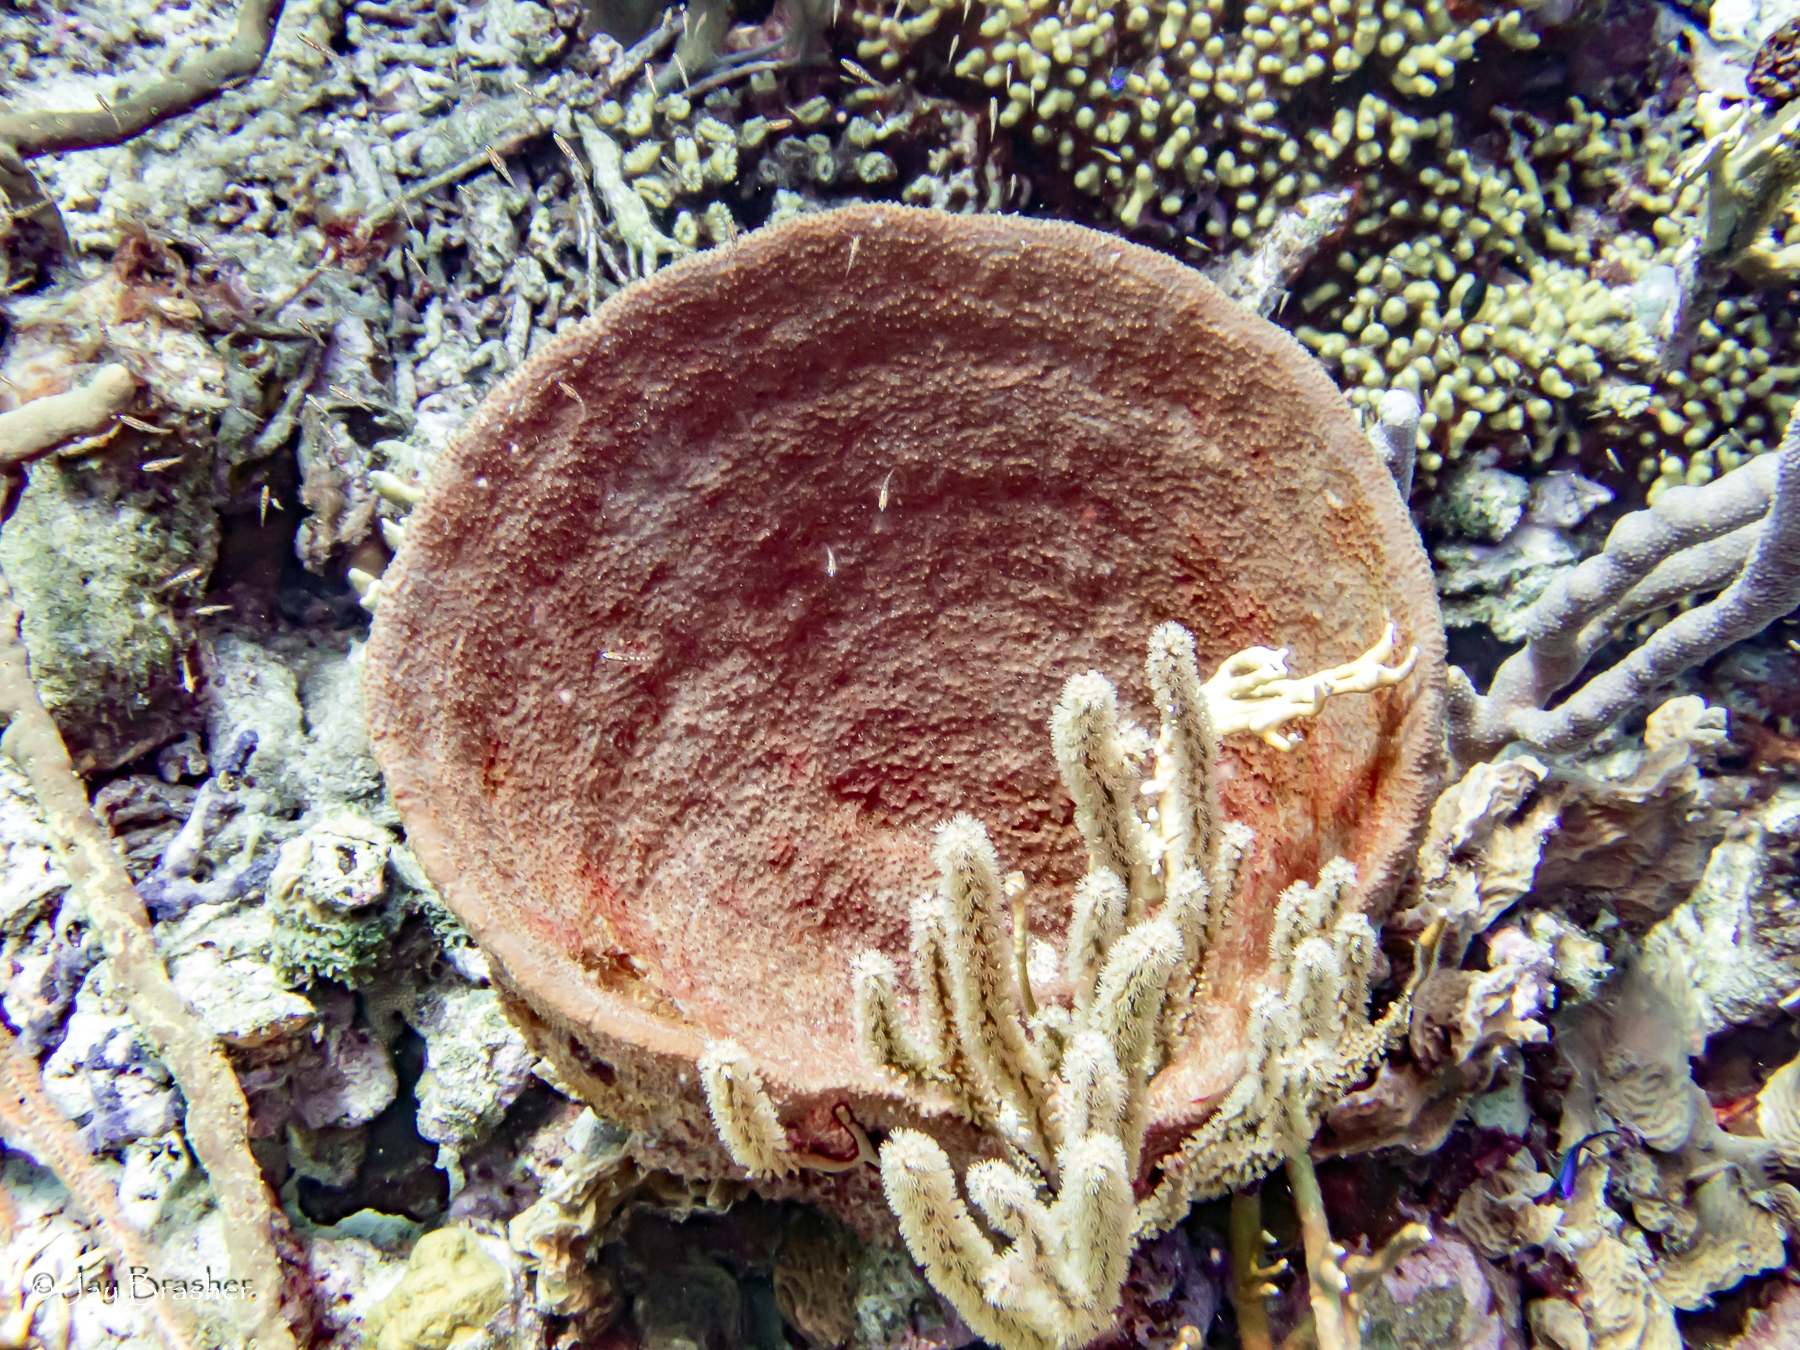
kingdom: Animalia
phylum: Porifera
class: Demospongiae
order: Dictyoceratida
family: Irciniidae
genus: Ircinia
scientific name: Ircinia campana
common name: Vase sponge
